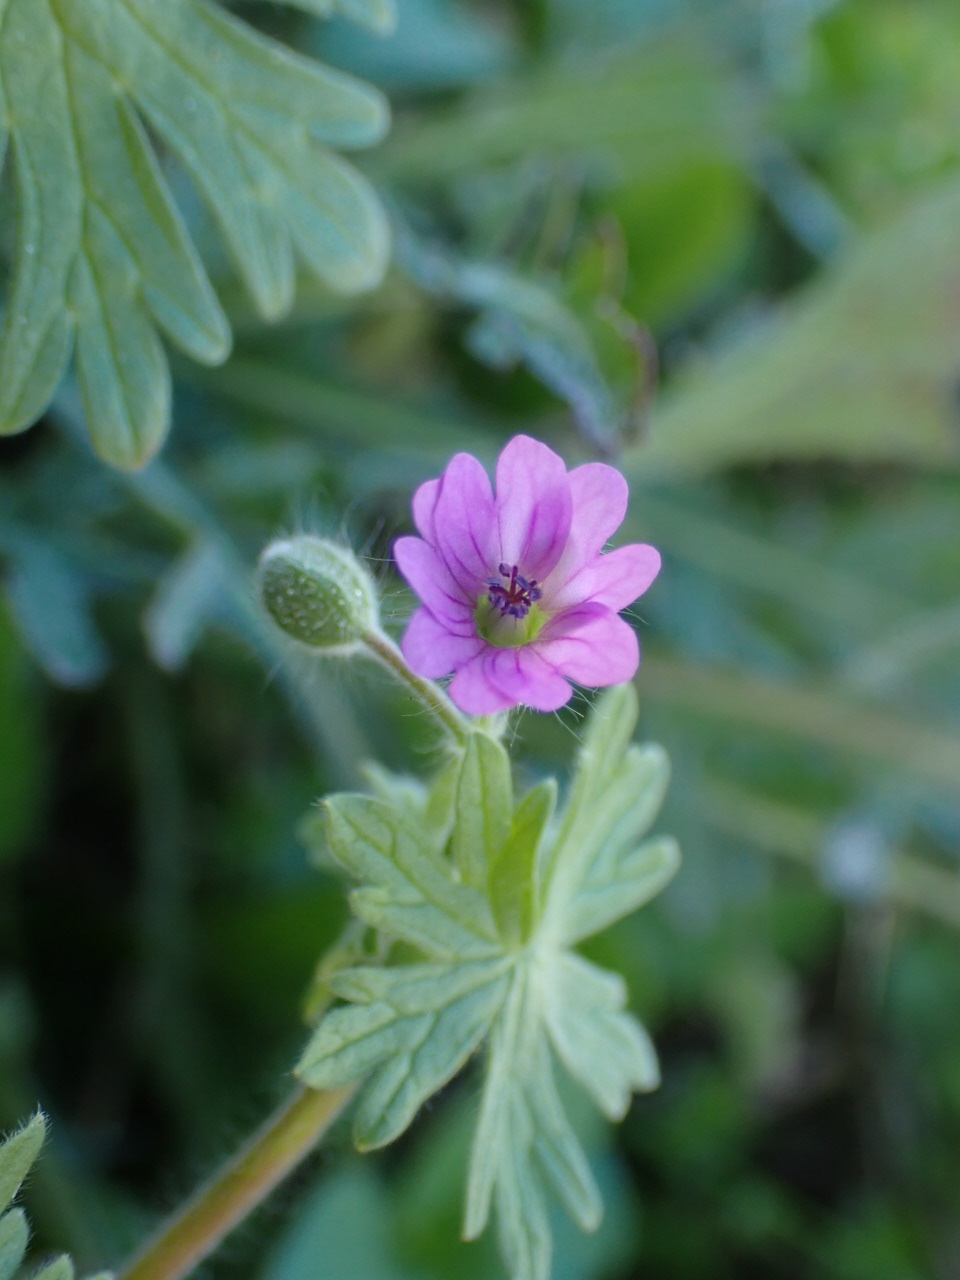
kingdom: Plantae
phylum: Tracheophyta
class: Magnoliopsida
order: Geraniales
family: Geraniaceae
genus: Geranium
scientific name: Geranium molle
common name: Dove's-foot crane's-bill
